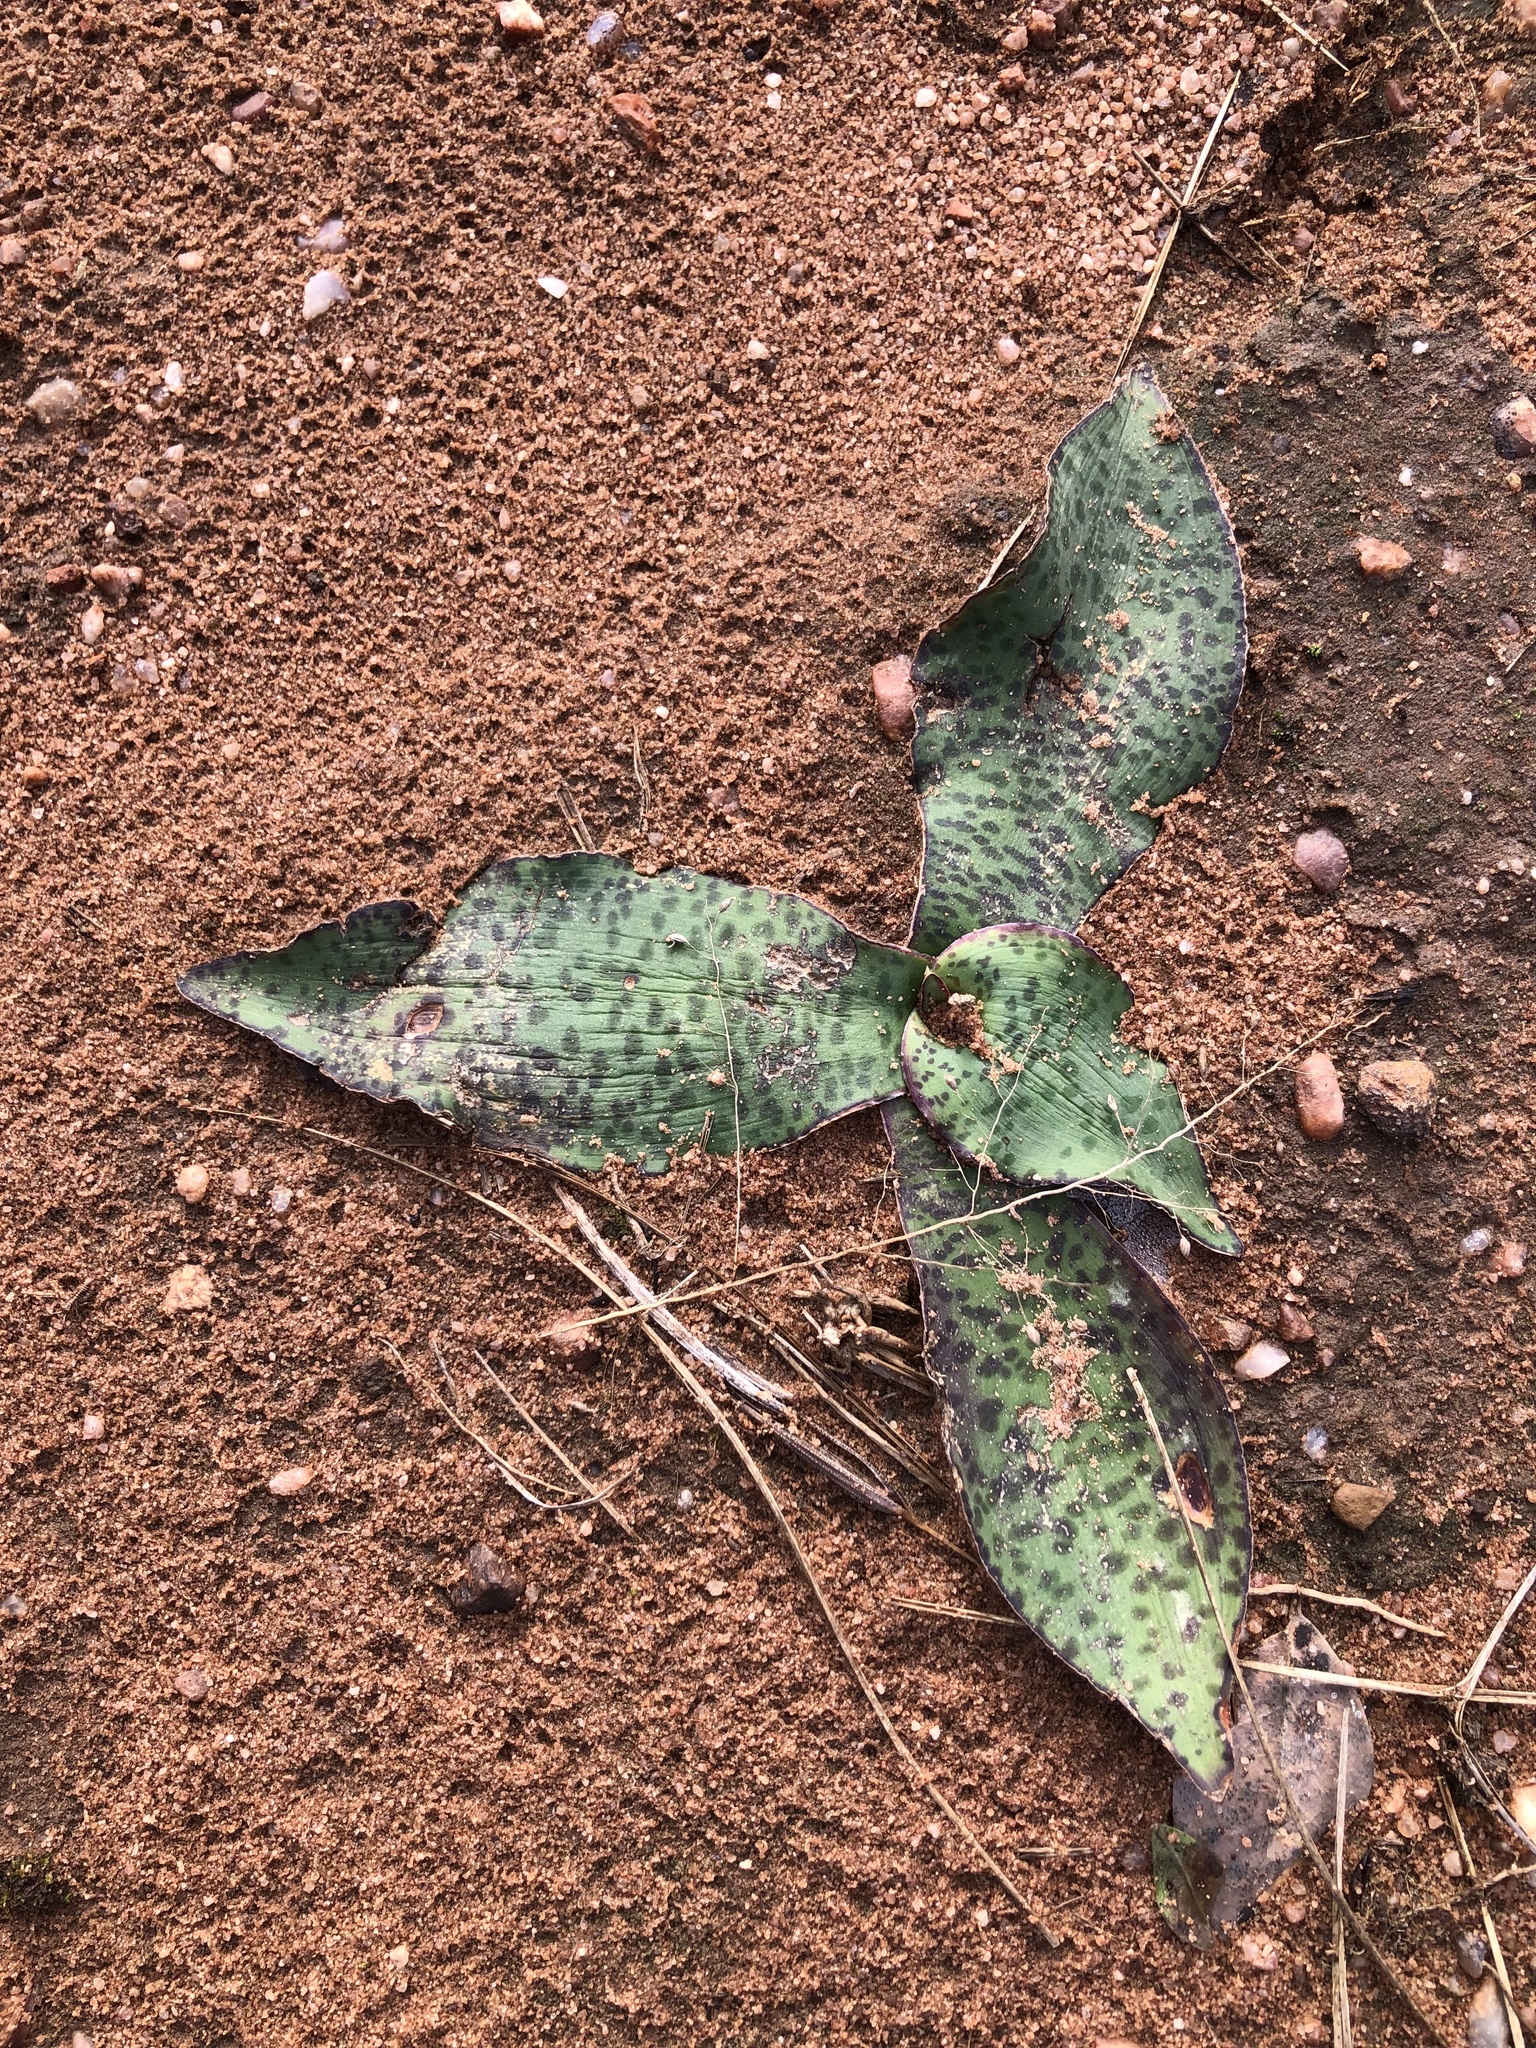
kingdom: Plantae
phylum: Tracheophyta
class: Liliopsida
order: Asparagales
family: Asparagaceae
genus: Ledebouria
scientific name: Ledebouria ovatifolia
